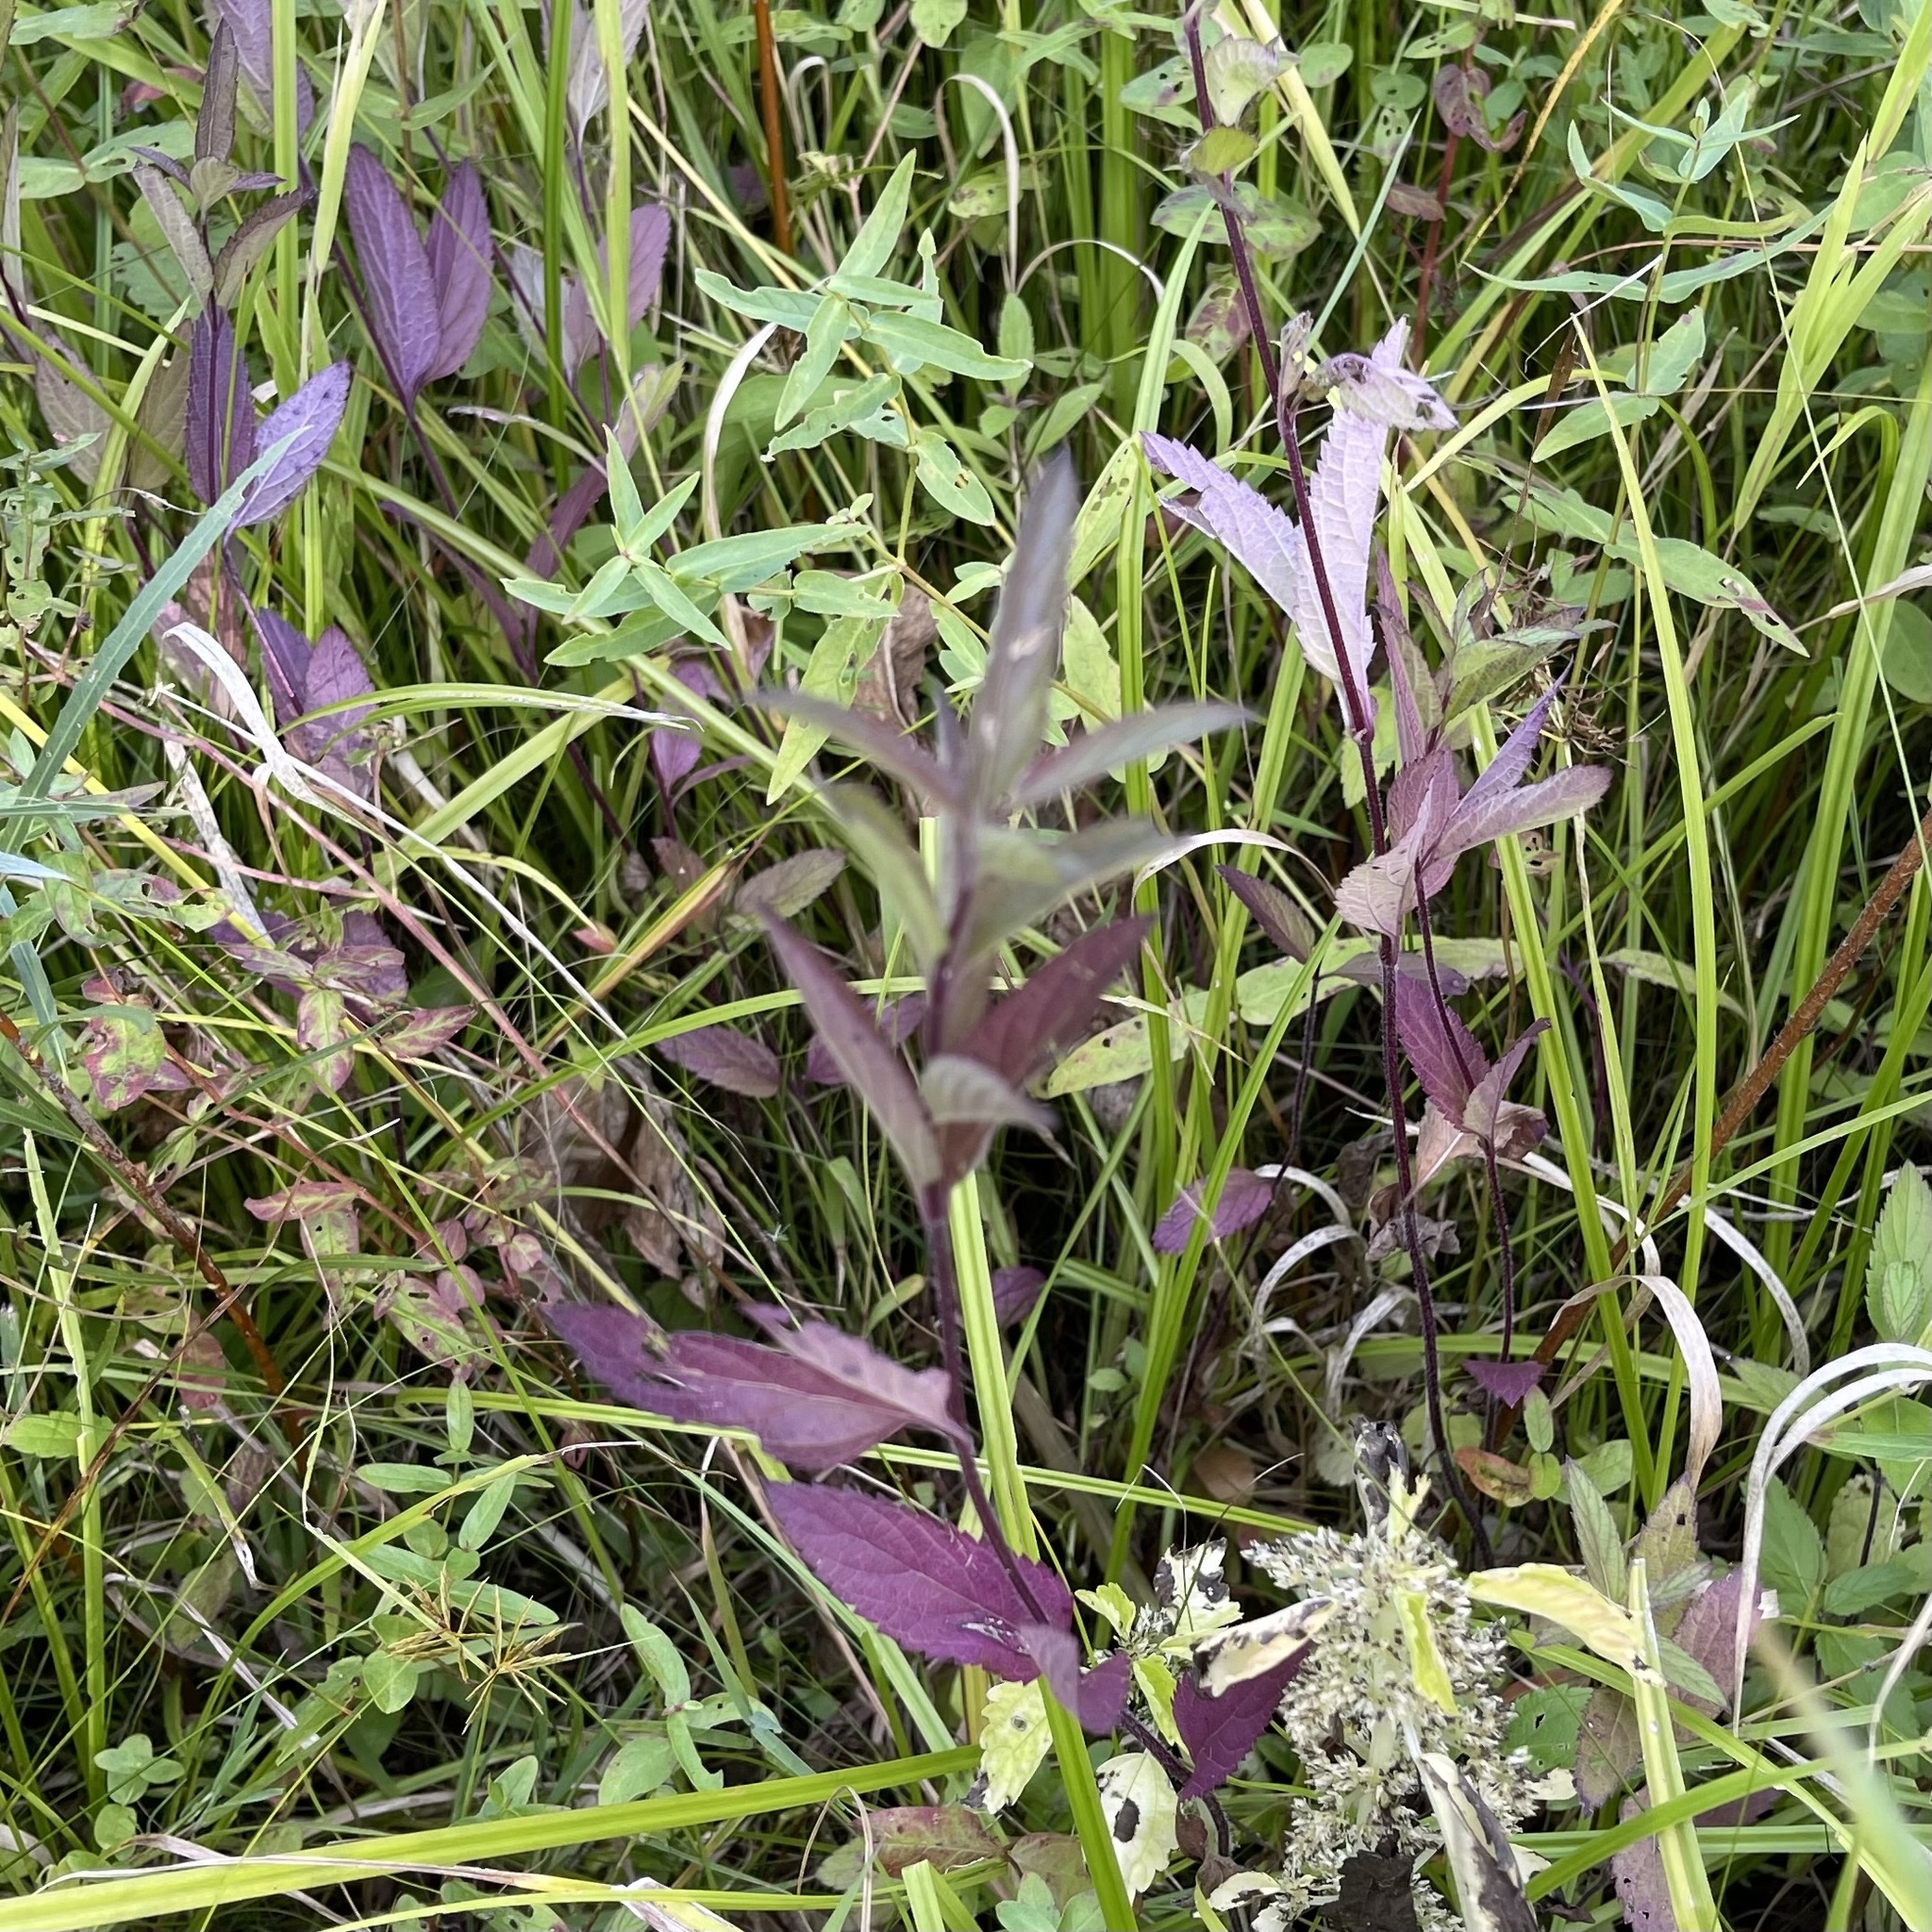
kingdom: Plantae
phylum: Tracheophyta
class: Magnoliopsida
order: Lamiales
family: Verbenaceae
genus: Verbena
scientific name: Verbena hastata
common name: American blue vervain
